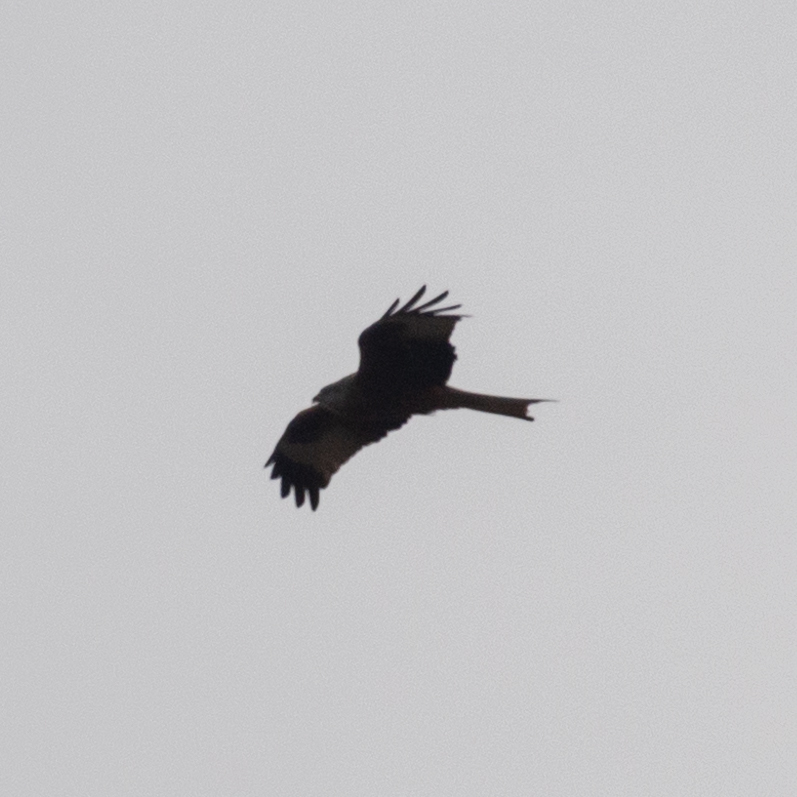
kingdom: Animalia
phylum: Chordata
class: Aves
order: Accipitriformes
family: Accipitridae
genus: Milvus
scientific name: Milvus milvus
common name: Red kite
